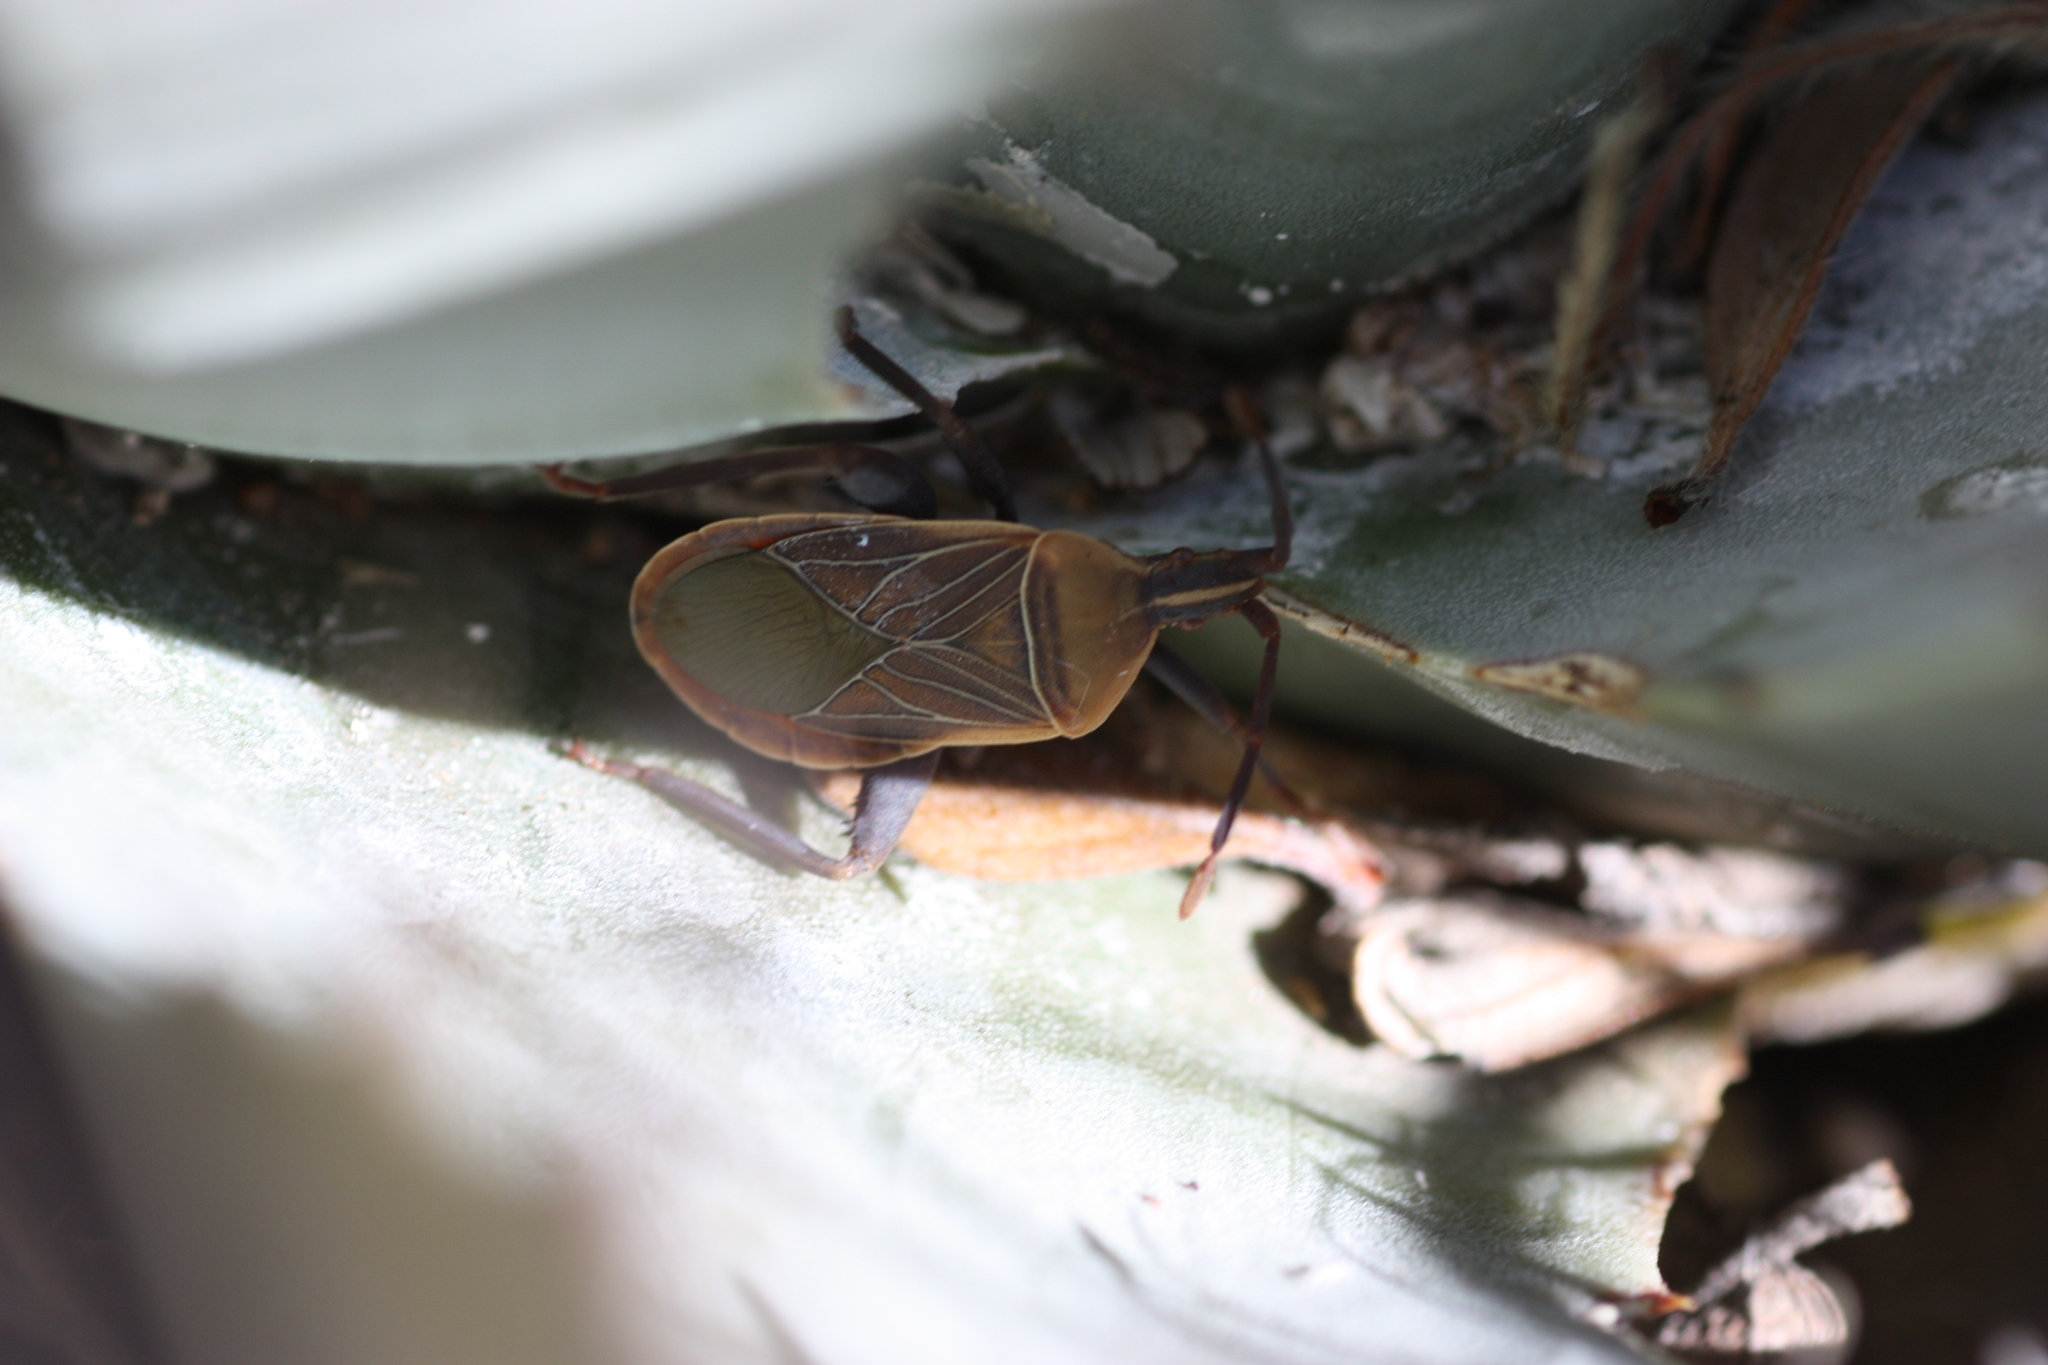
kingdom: Animalia
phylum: Arthropoda
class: Insecta
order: Hemiptera
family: Coreidae
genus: Chelinidea
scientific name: Chelinidea vittiger
